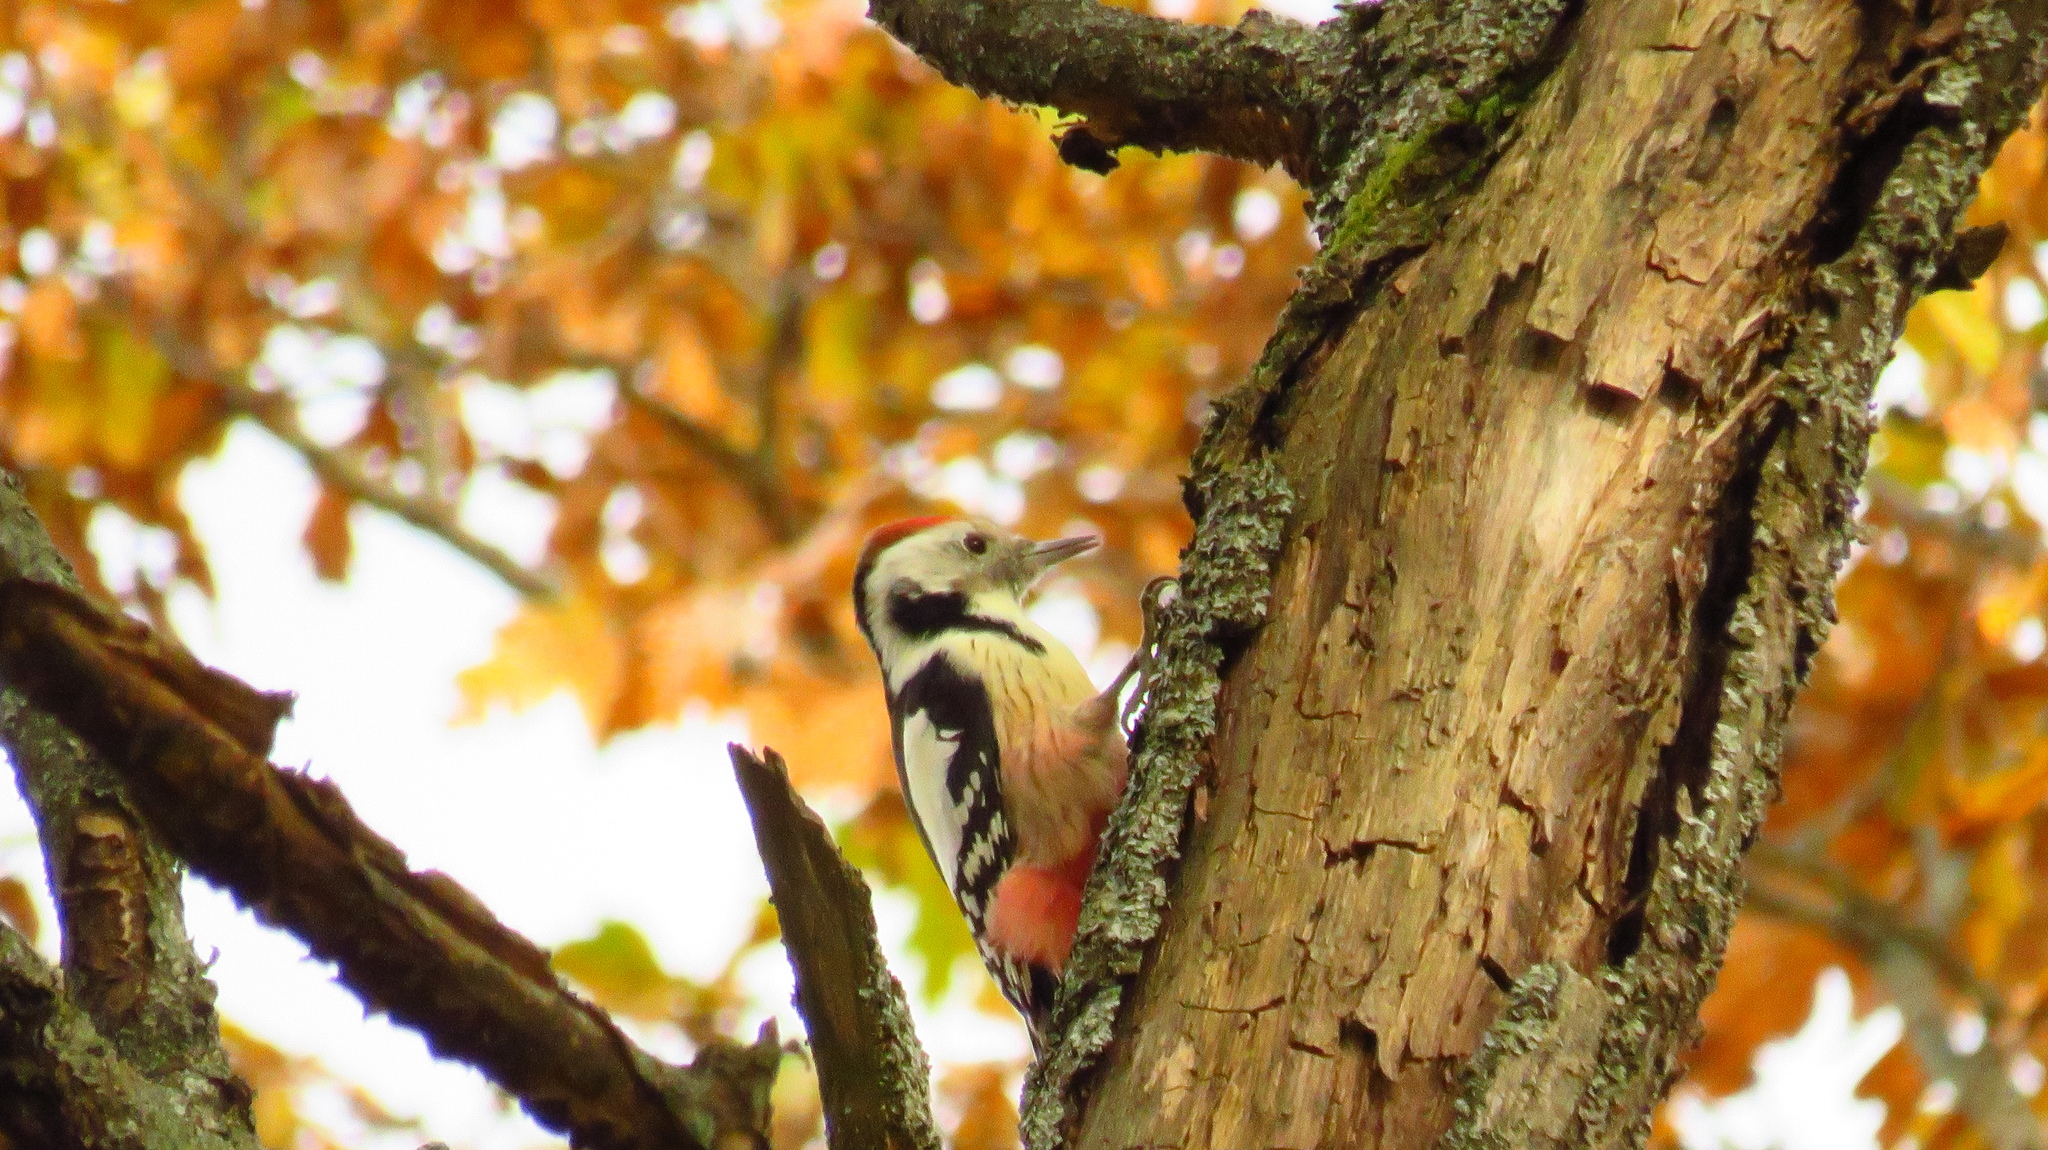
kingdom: Animalia
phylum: Chordata
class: Aves
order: Piciformes
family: Picidae
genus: Dendrocoptes
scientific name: Dendrocoptes medius
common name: Middle spotted woodpecker
